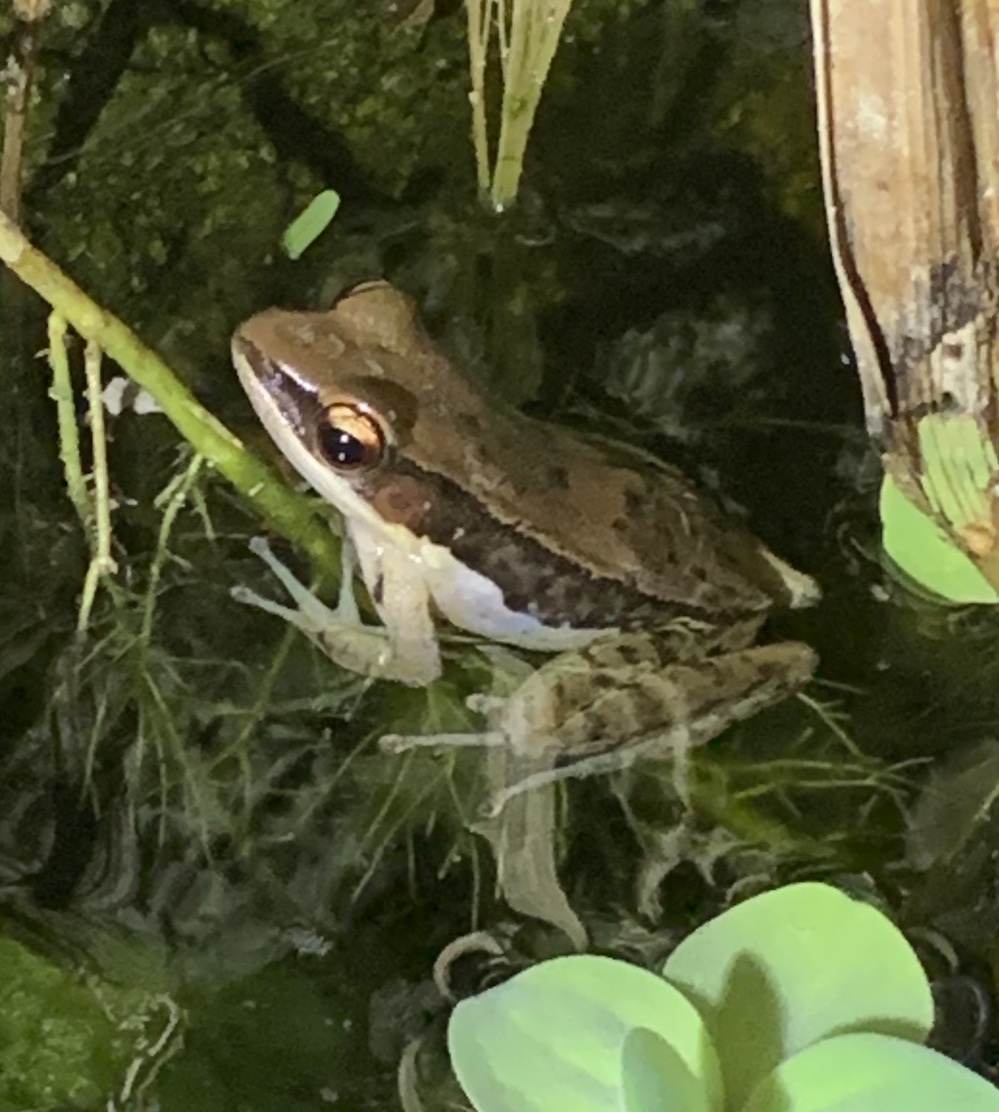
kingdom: Animalia
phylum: Chordata
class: Amphibia
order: Anura
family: Ranidae
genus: Sylvirana
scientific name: Sylvirana malayana
